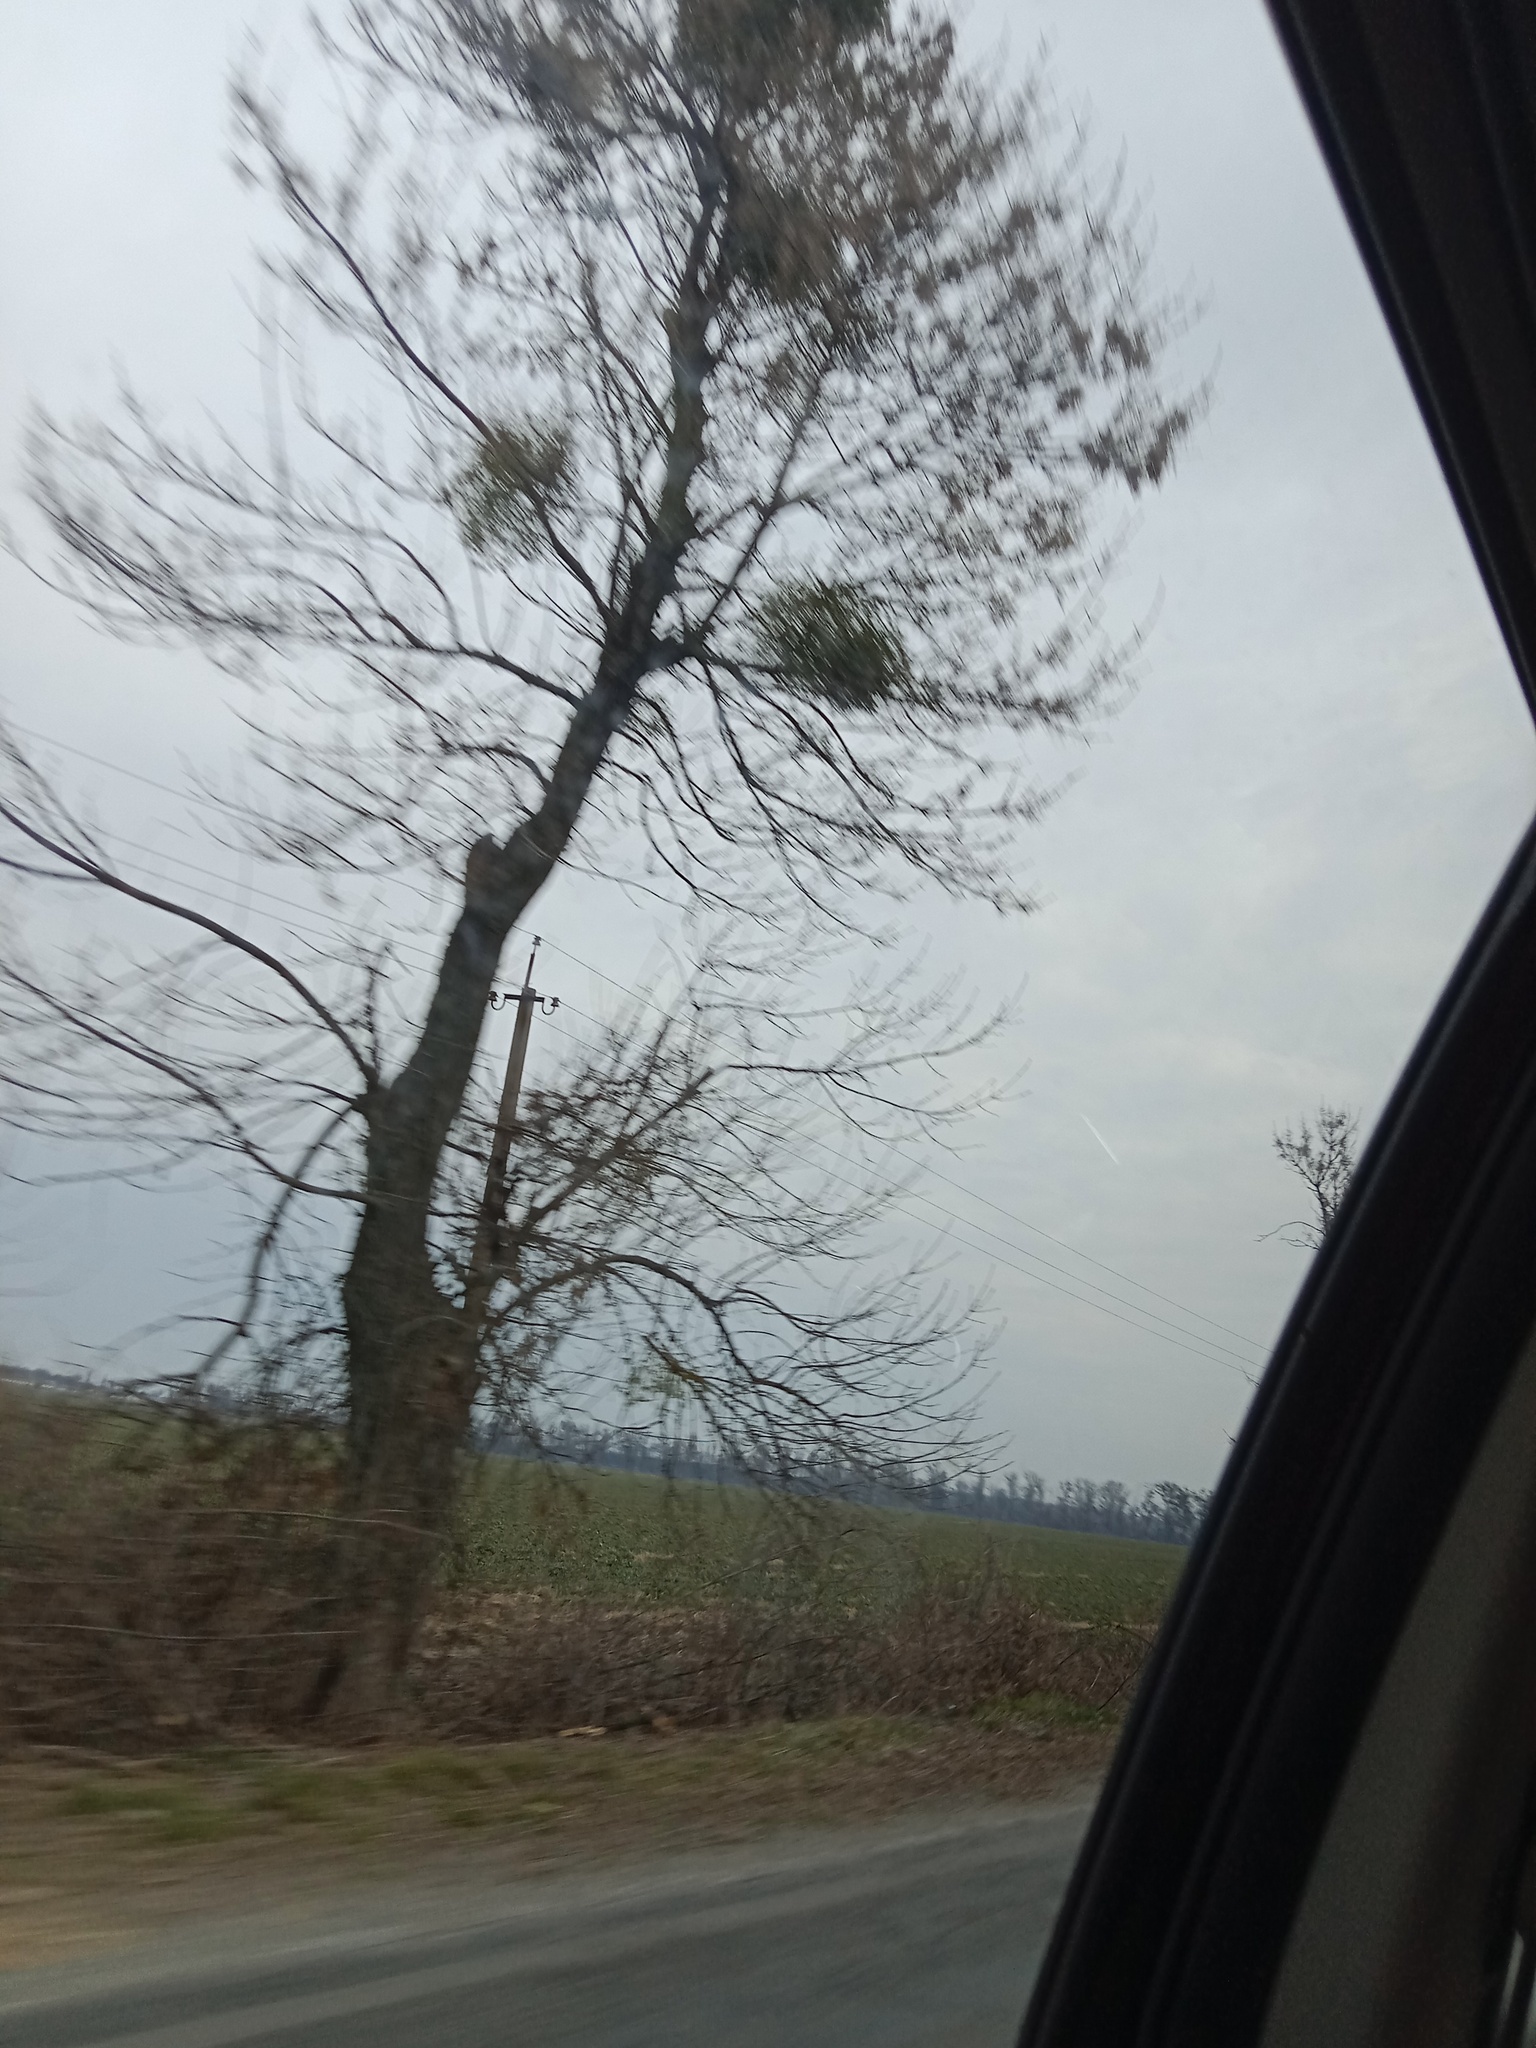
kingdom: Plantae
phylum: Tracheophyta
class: Magnoliopsida
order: Santalales
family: Viscaceae
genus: Viscum
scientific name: Viscum album
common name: Mistletoe
